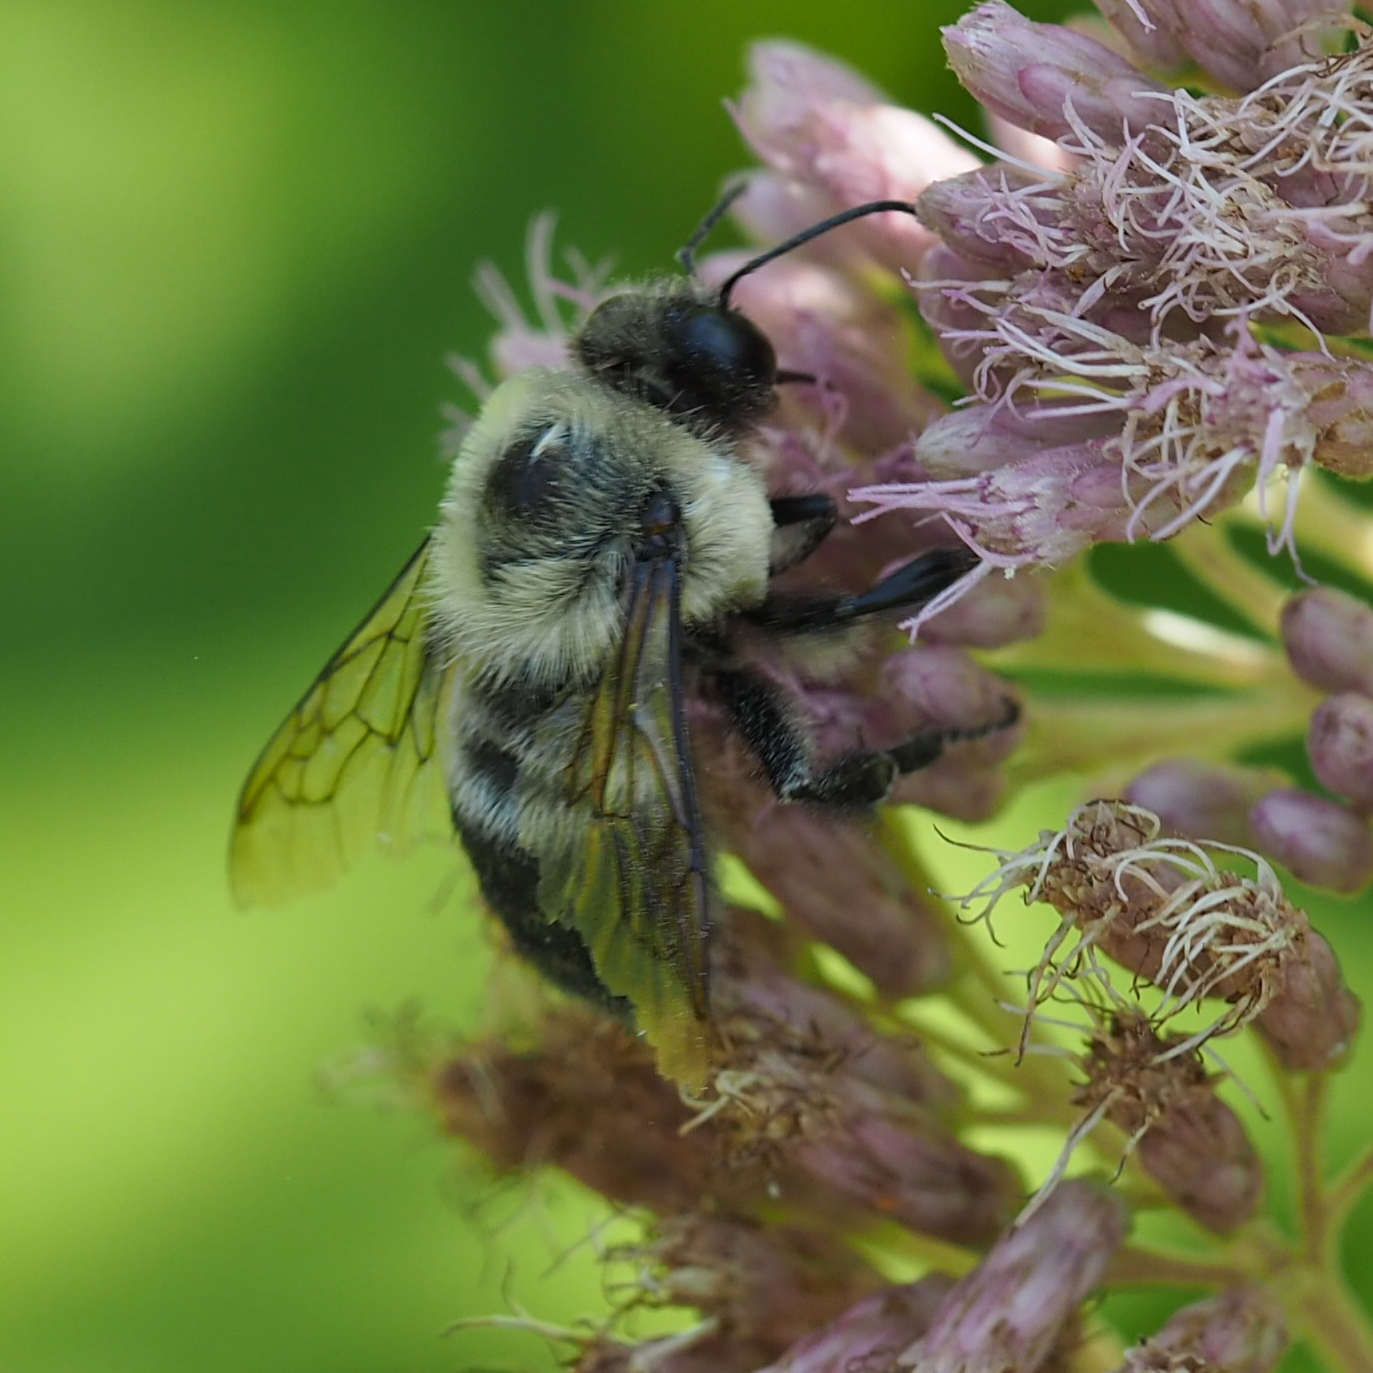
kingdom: Animalia
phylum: Arthropoda
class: Insecta
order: Hymenoptera
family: Apidae
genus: Bombus
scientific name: Bombus griseocollis
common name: Brown-belted bumble bee
